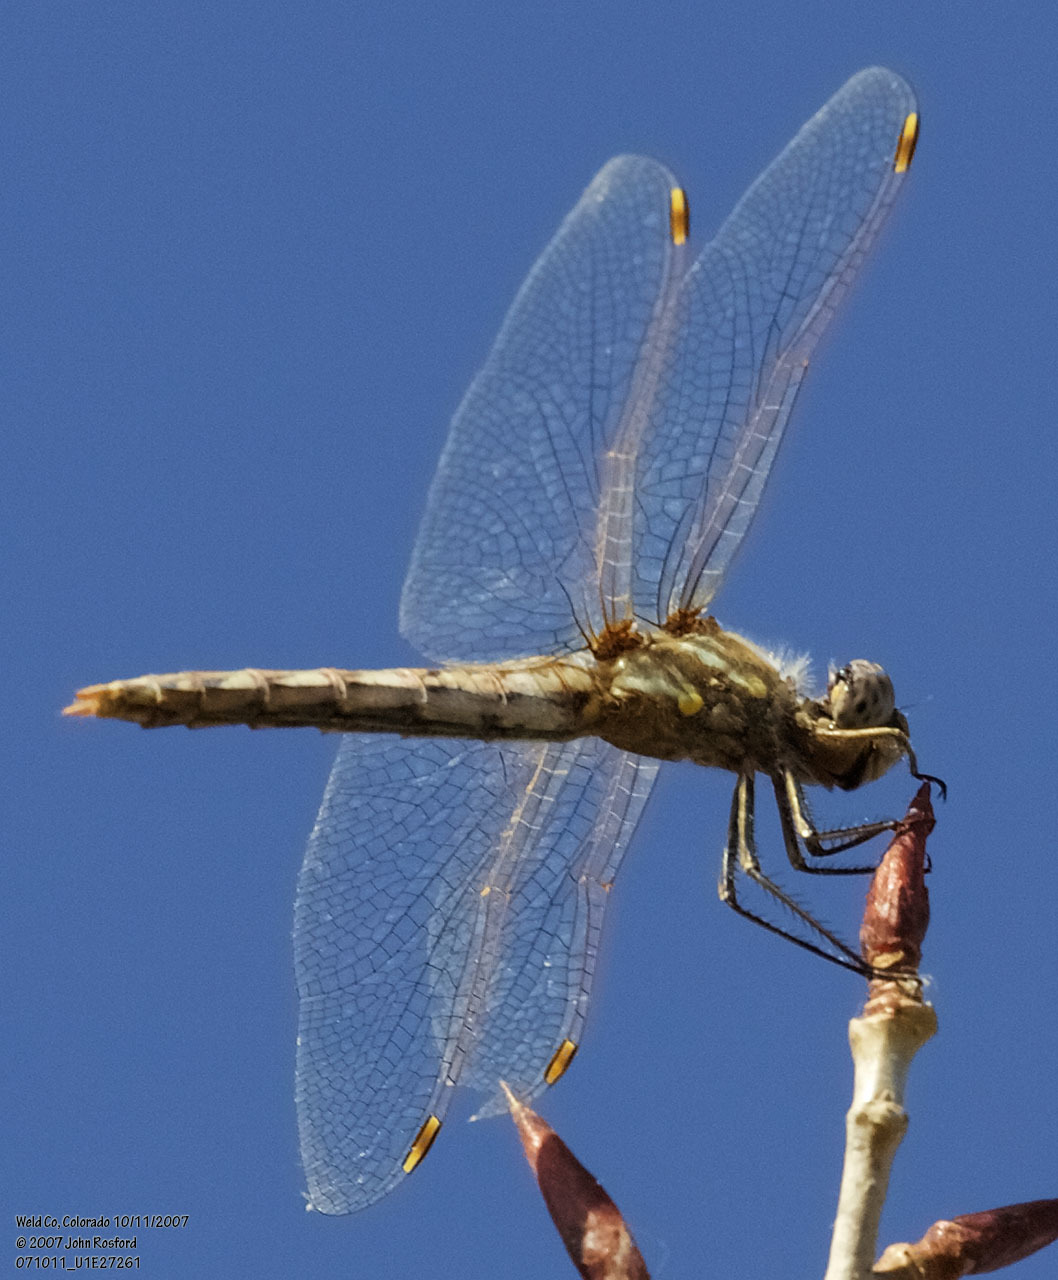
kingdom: Animalia
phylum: Arthropoda
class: Insecta
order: Odonata
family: Libellulidae
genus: Sympetrum
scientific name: Sympetrum corruptum
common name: Variegated meadowhawk
